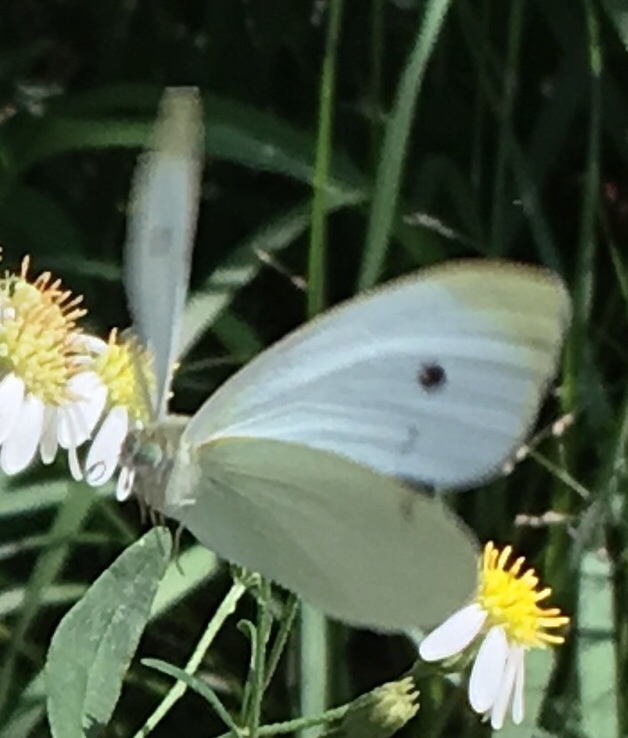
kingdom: Animalia
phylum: Arthropoda
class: Insecta
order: Lepidoptera
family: Pieridae
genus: Pieris
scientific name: Pieris rapae
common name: Small white
